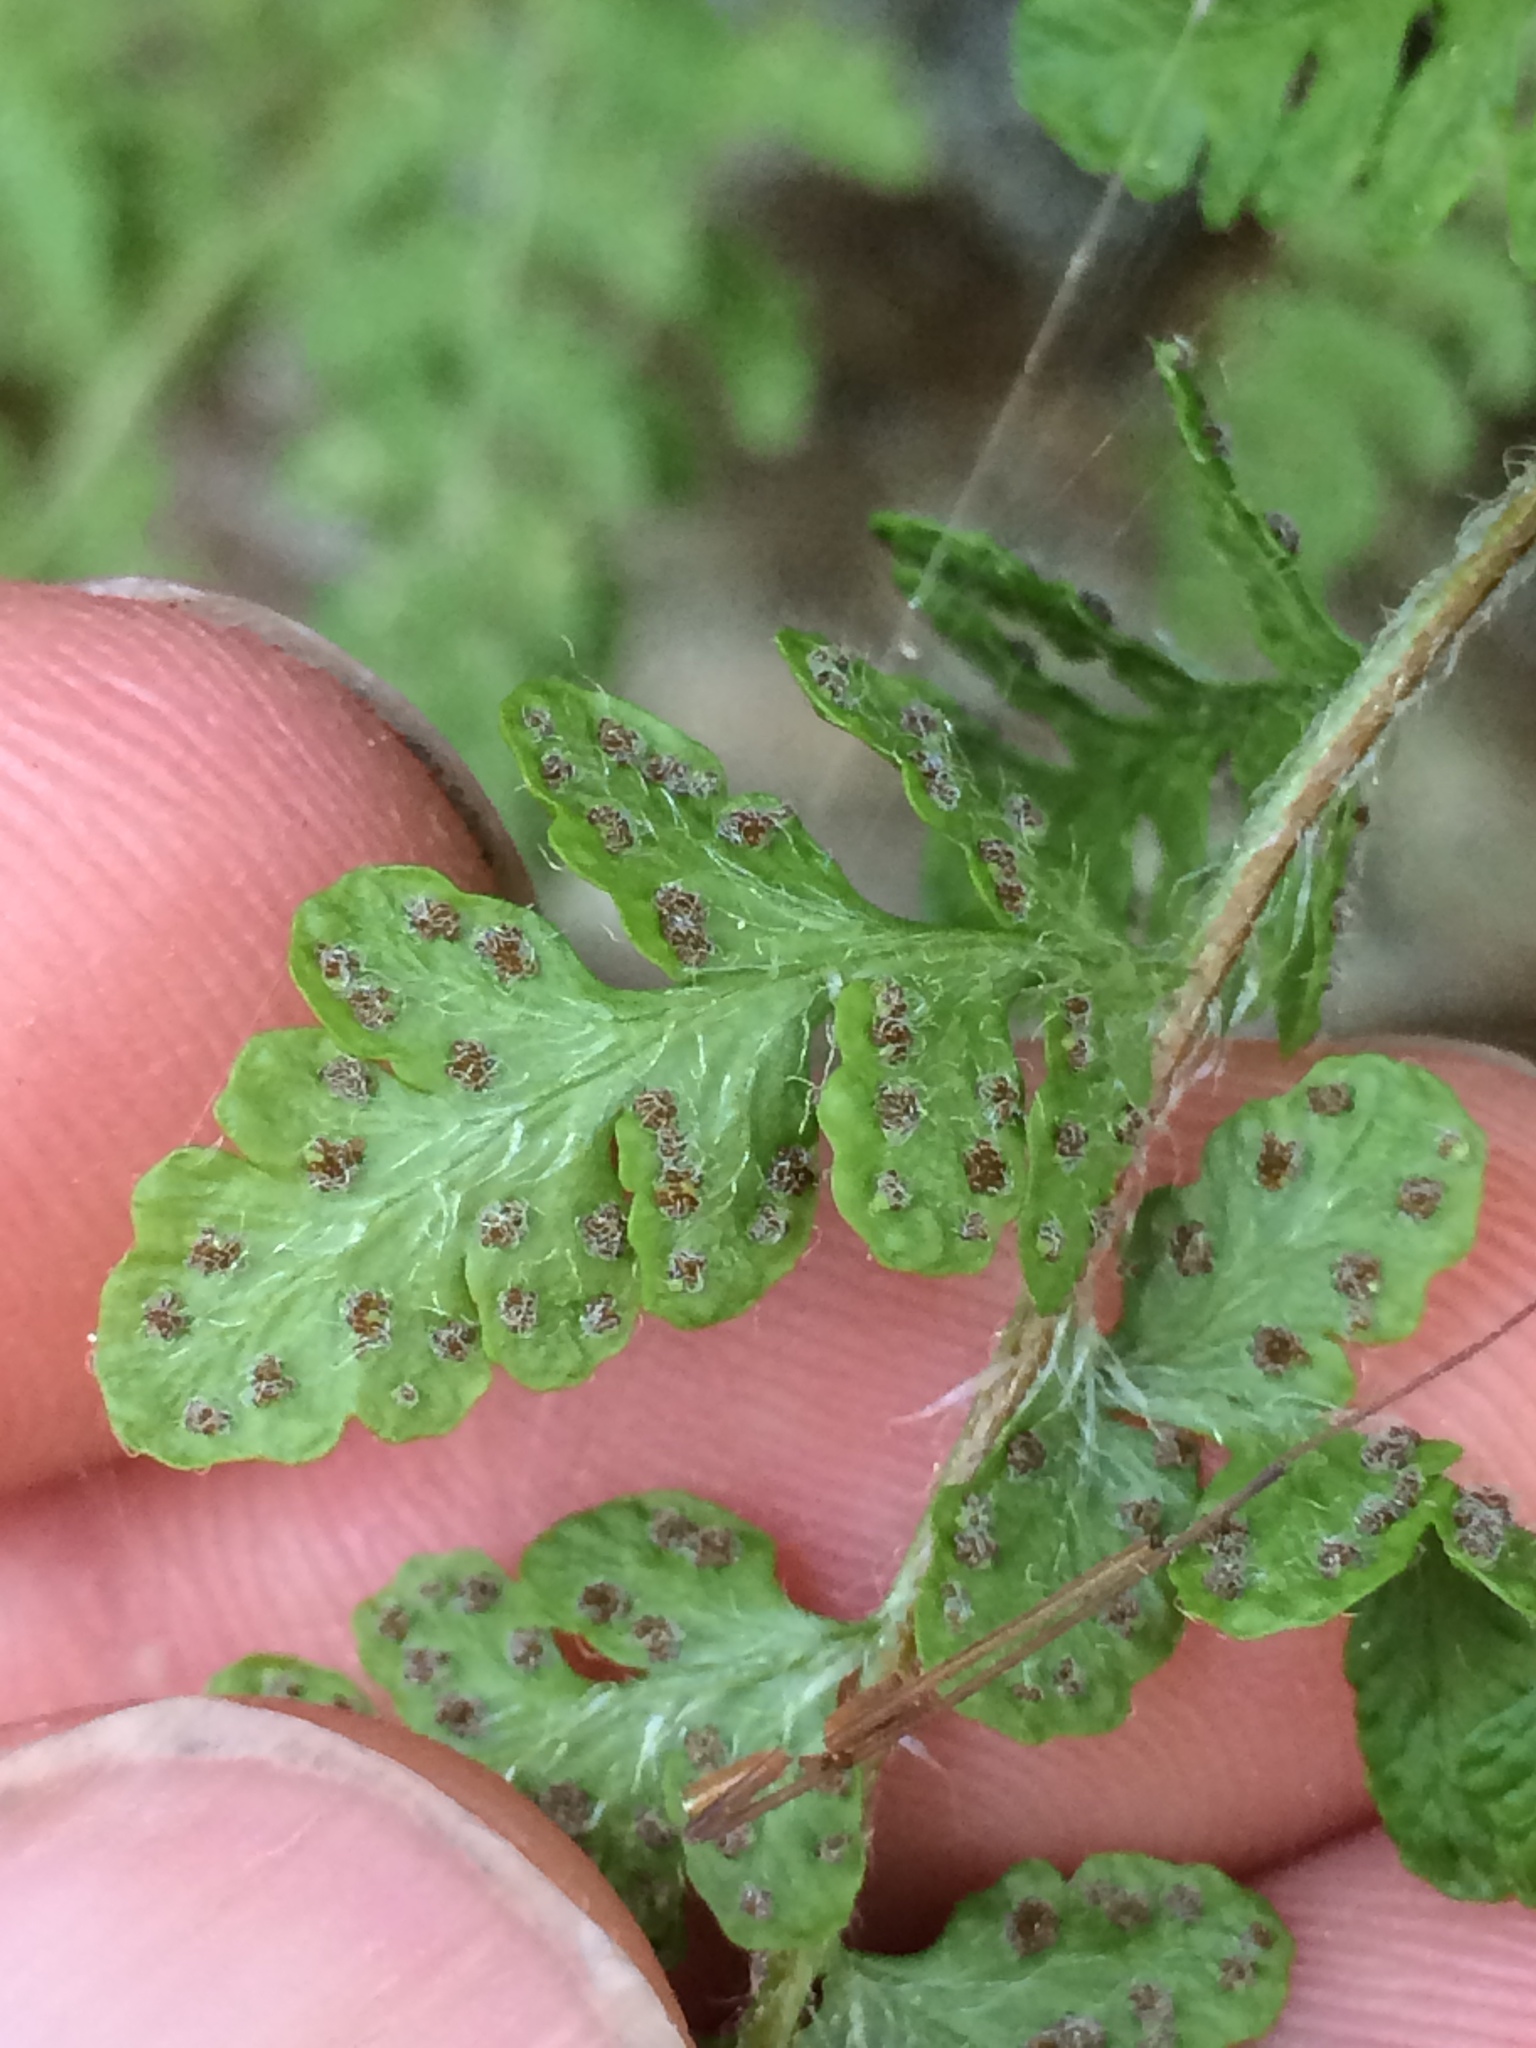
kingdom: Plantae
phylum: Tracheophyta
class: Polypodiopsida
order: Polypodiales
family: Woodsiaceae
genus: Woodsia
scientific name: Woodsia ilvensis
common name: Fragrant woodsia
